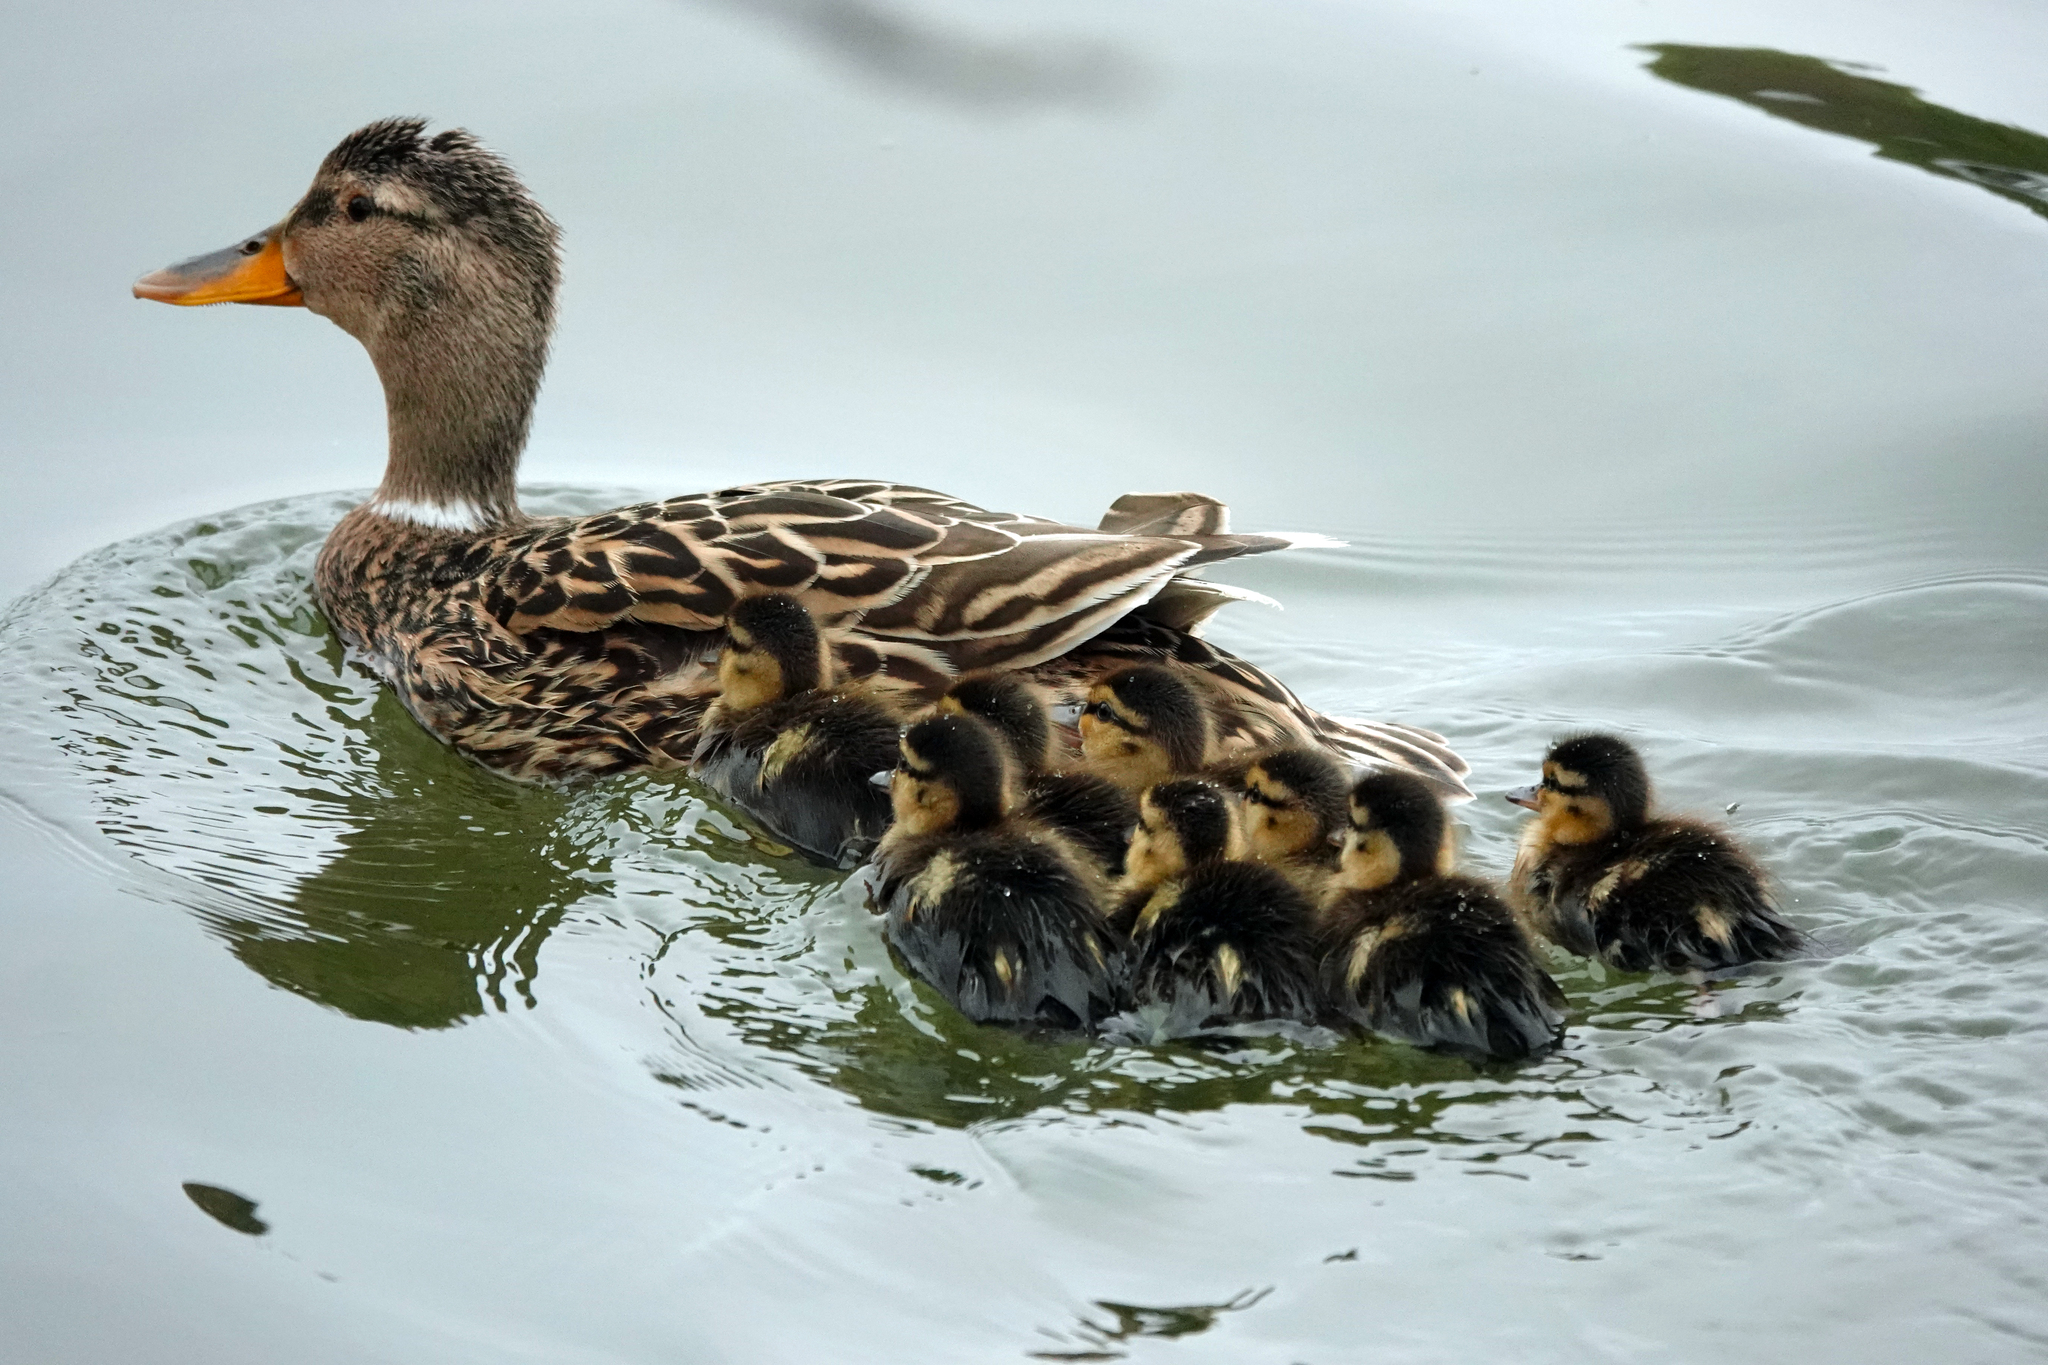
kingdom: Animalia
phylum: Chordata
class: Aves
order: Anseriformes
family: Anatidae
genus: Anas
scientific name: Anas platyrhynchos
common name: Mallard
